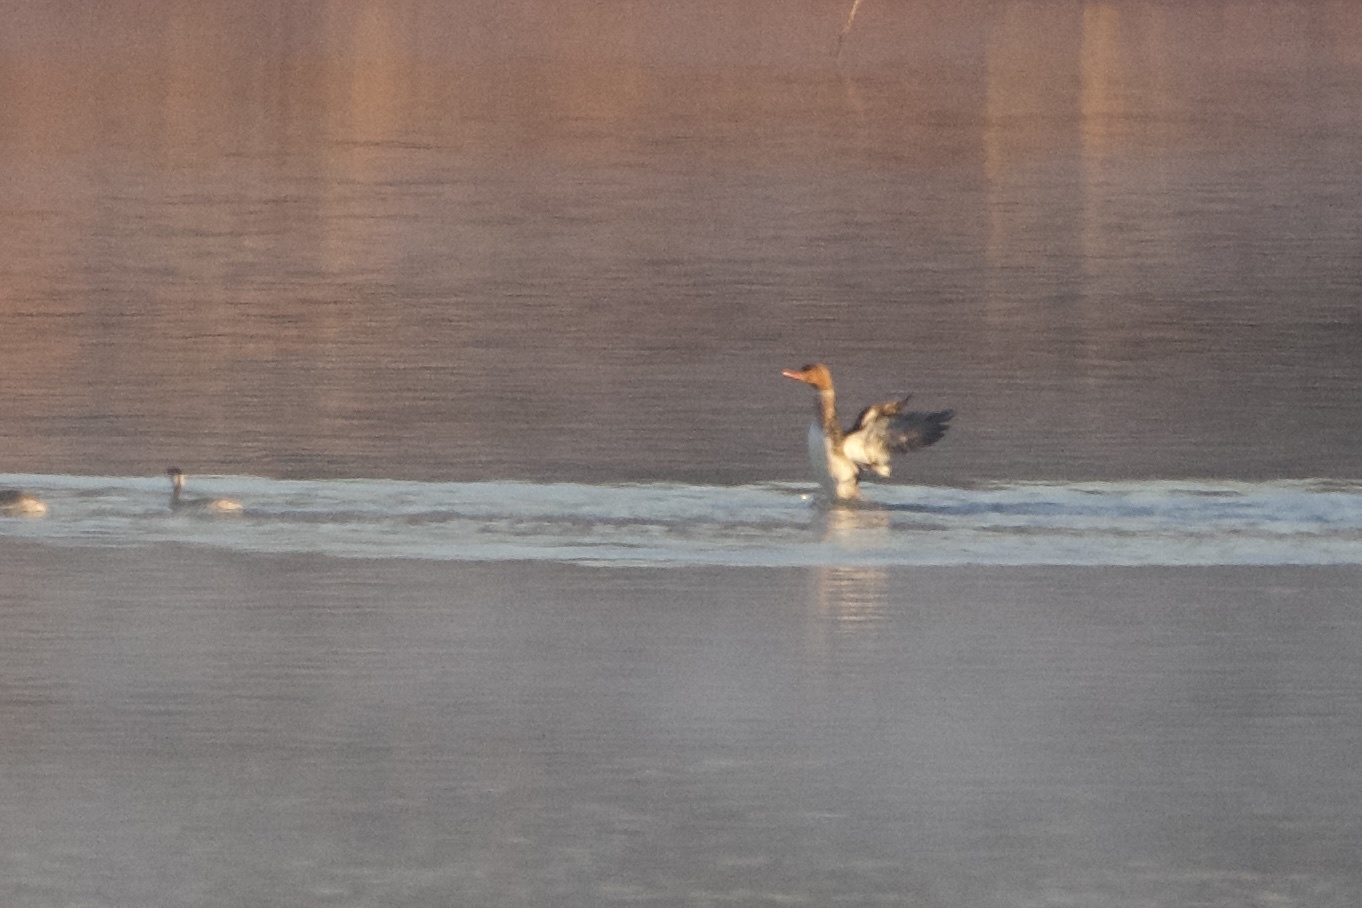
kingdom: Animalia
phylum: Chordata
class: Aves
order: Anseriformes
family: Anatidae
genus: Mergus
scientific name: Mergus serrator
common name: Red-breasted merganser
